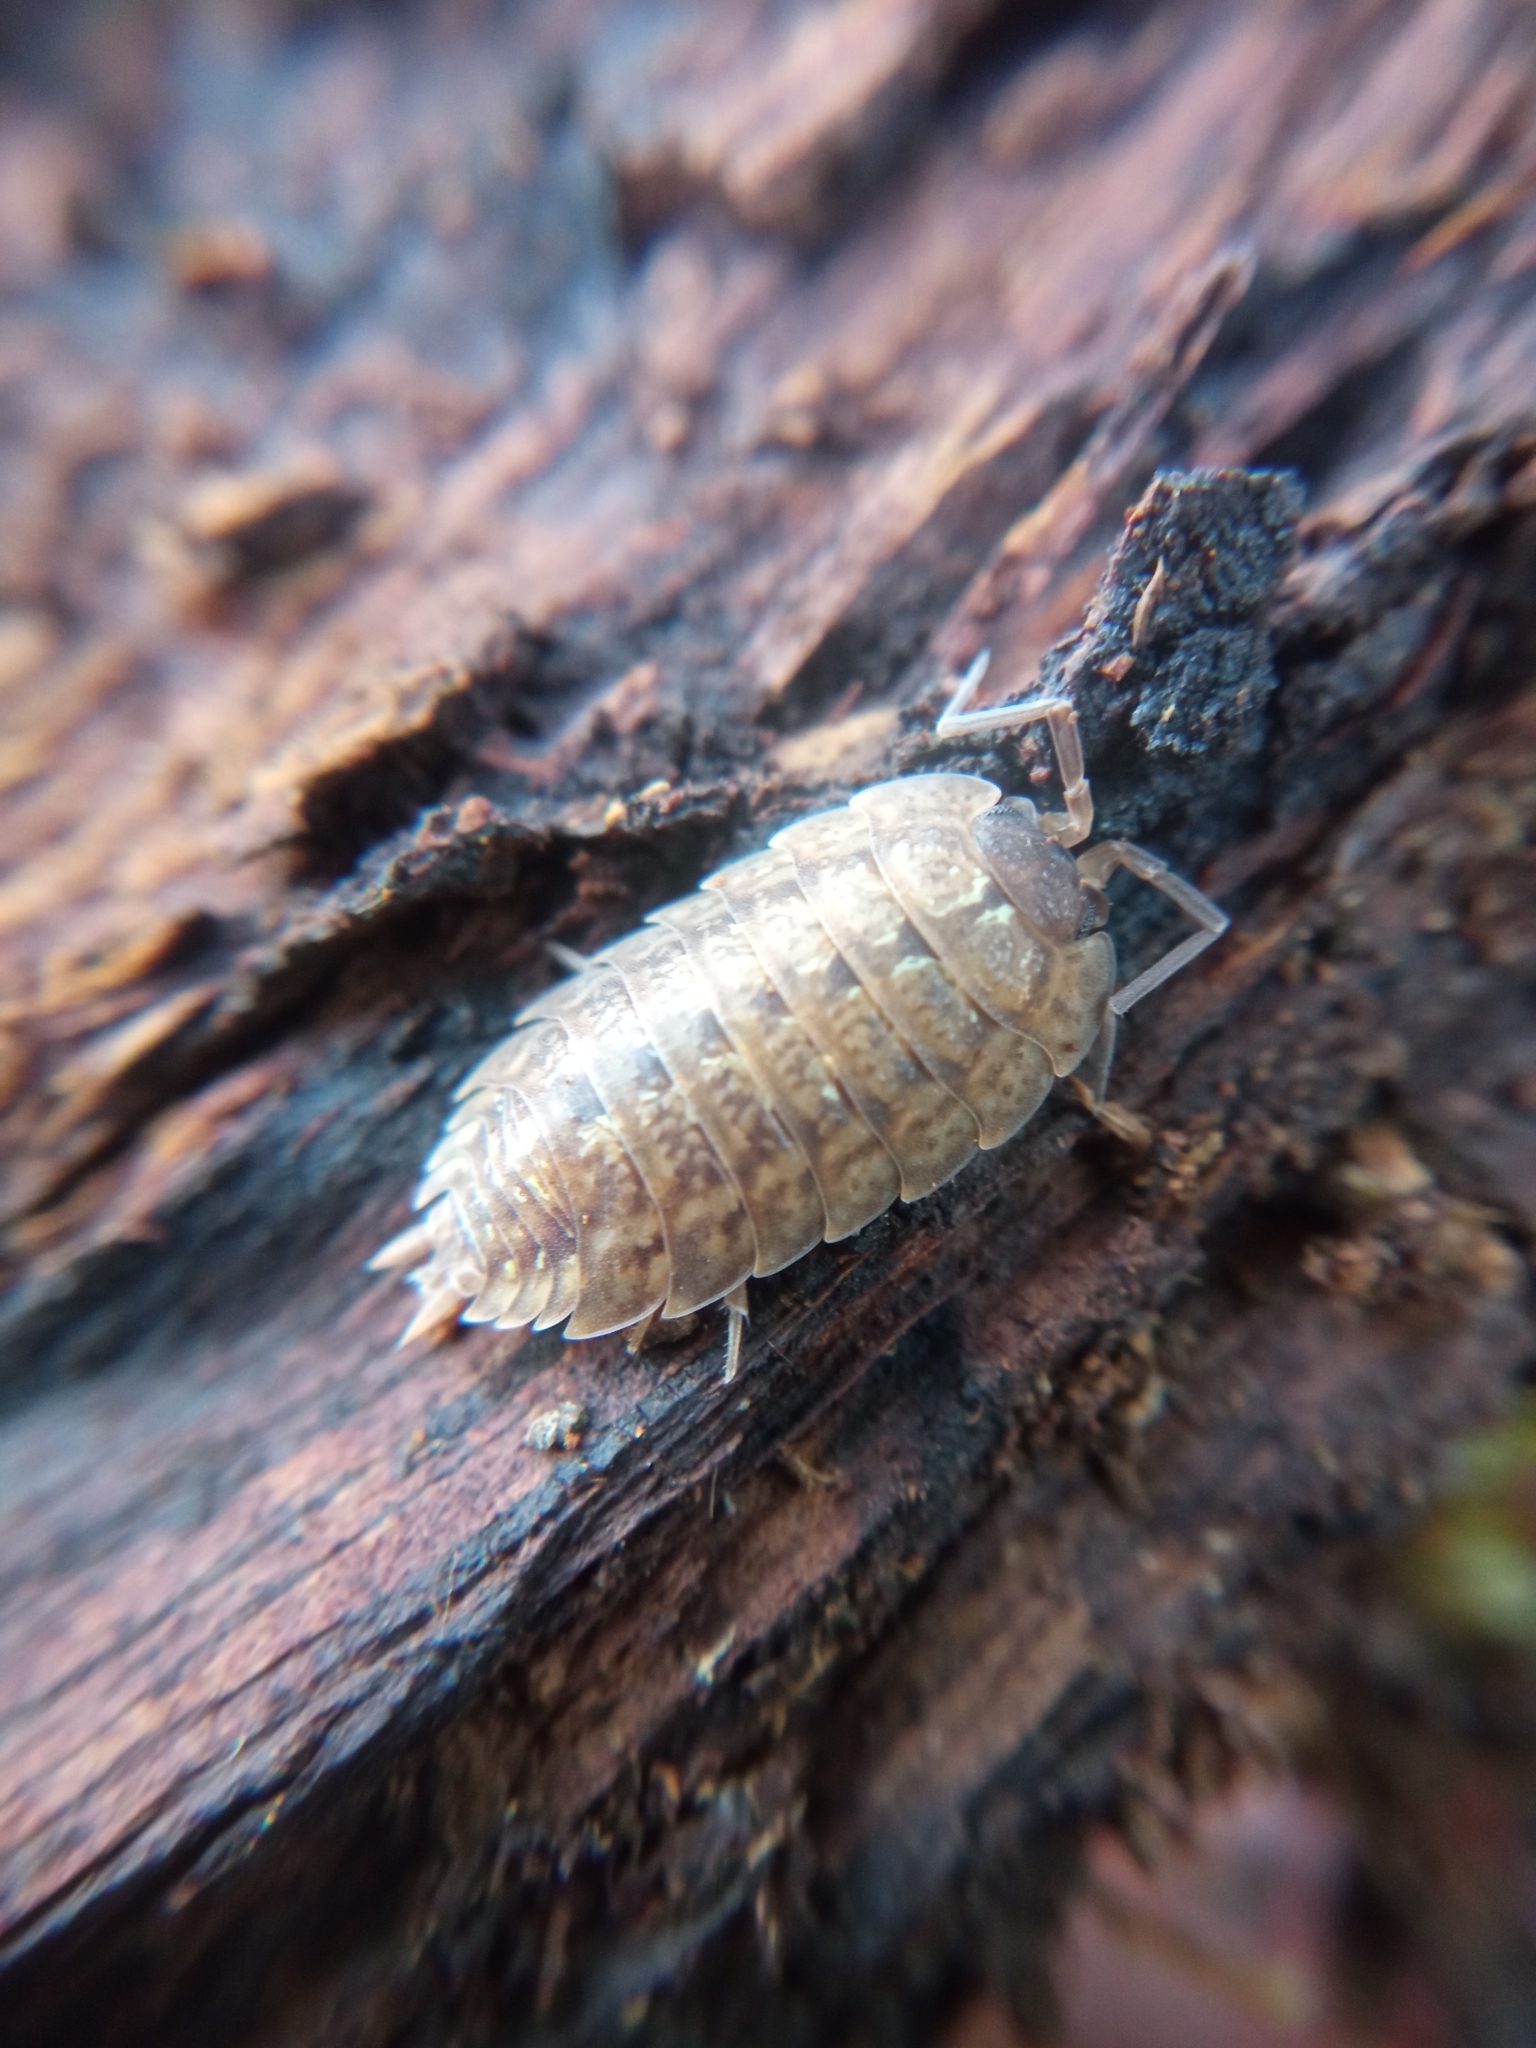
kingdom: Animalia
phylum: Arthropoda
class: Malacostraca
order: Isopoda
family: Porcellionidae
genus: Porcellio
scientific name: Porcellio monticola
